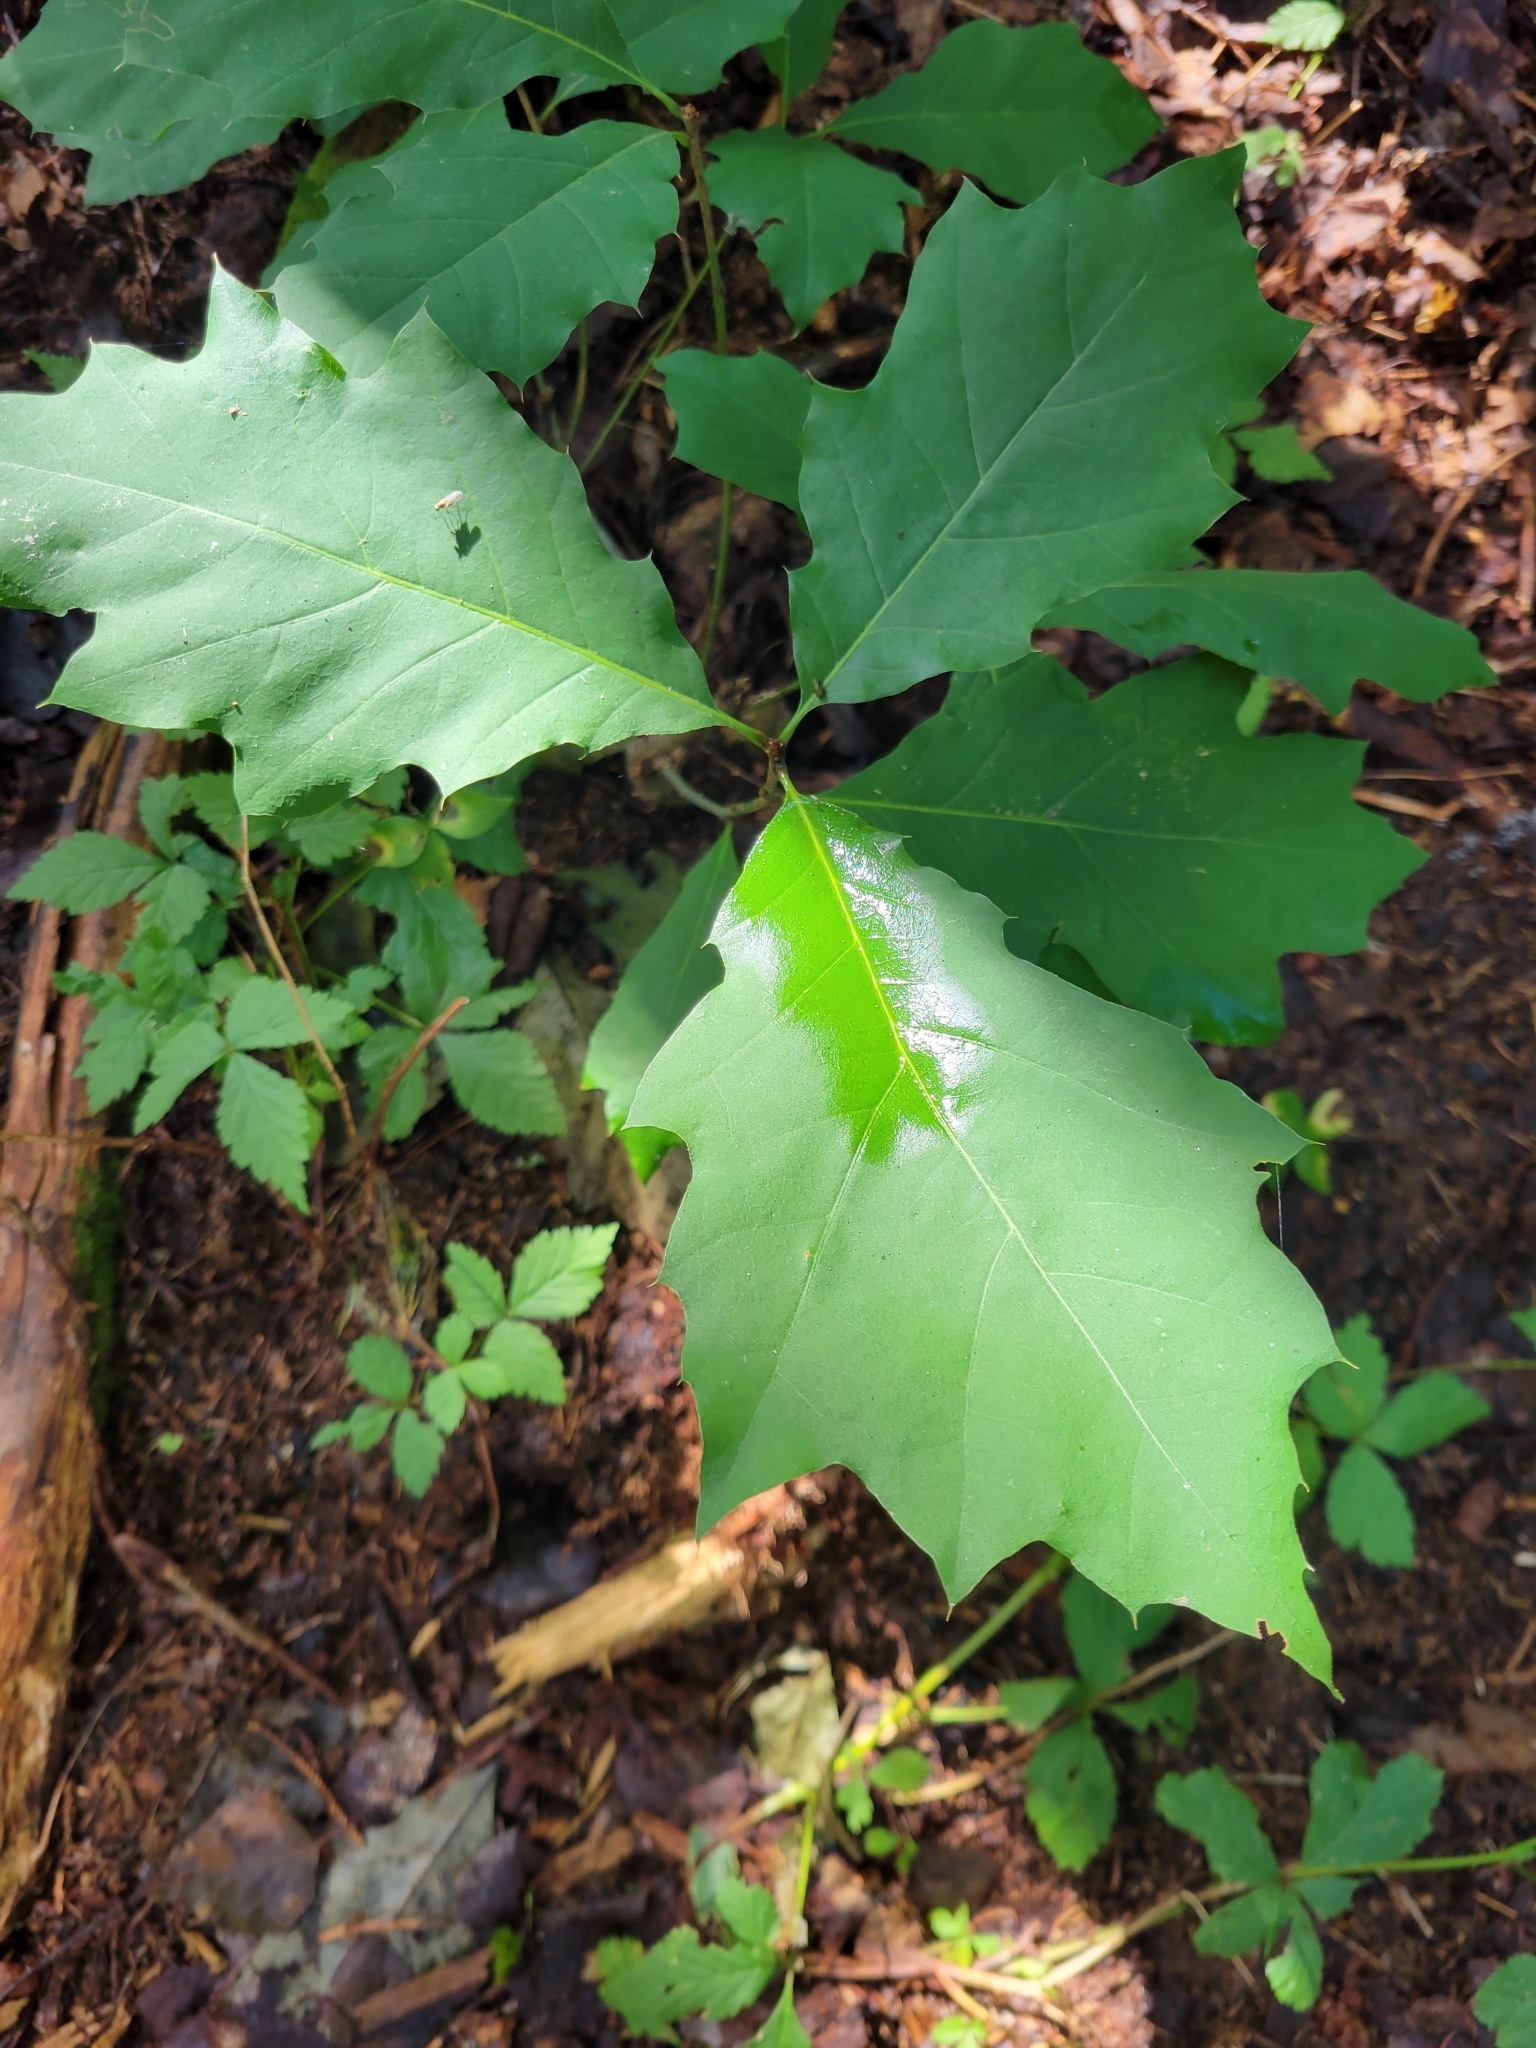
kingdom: Plantae
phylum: Tracheophyta
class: Magnoliopsida
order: Fagales
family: Fagaceae
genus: Quercus
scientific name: Quercus rubra
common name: Red oak
